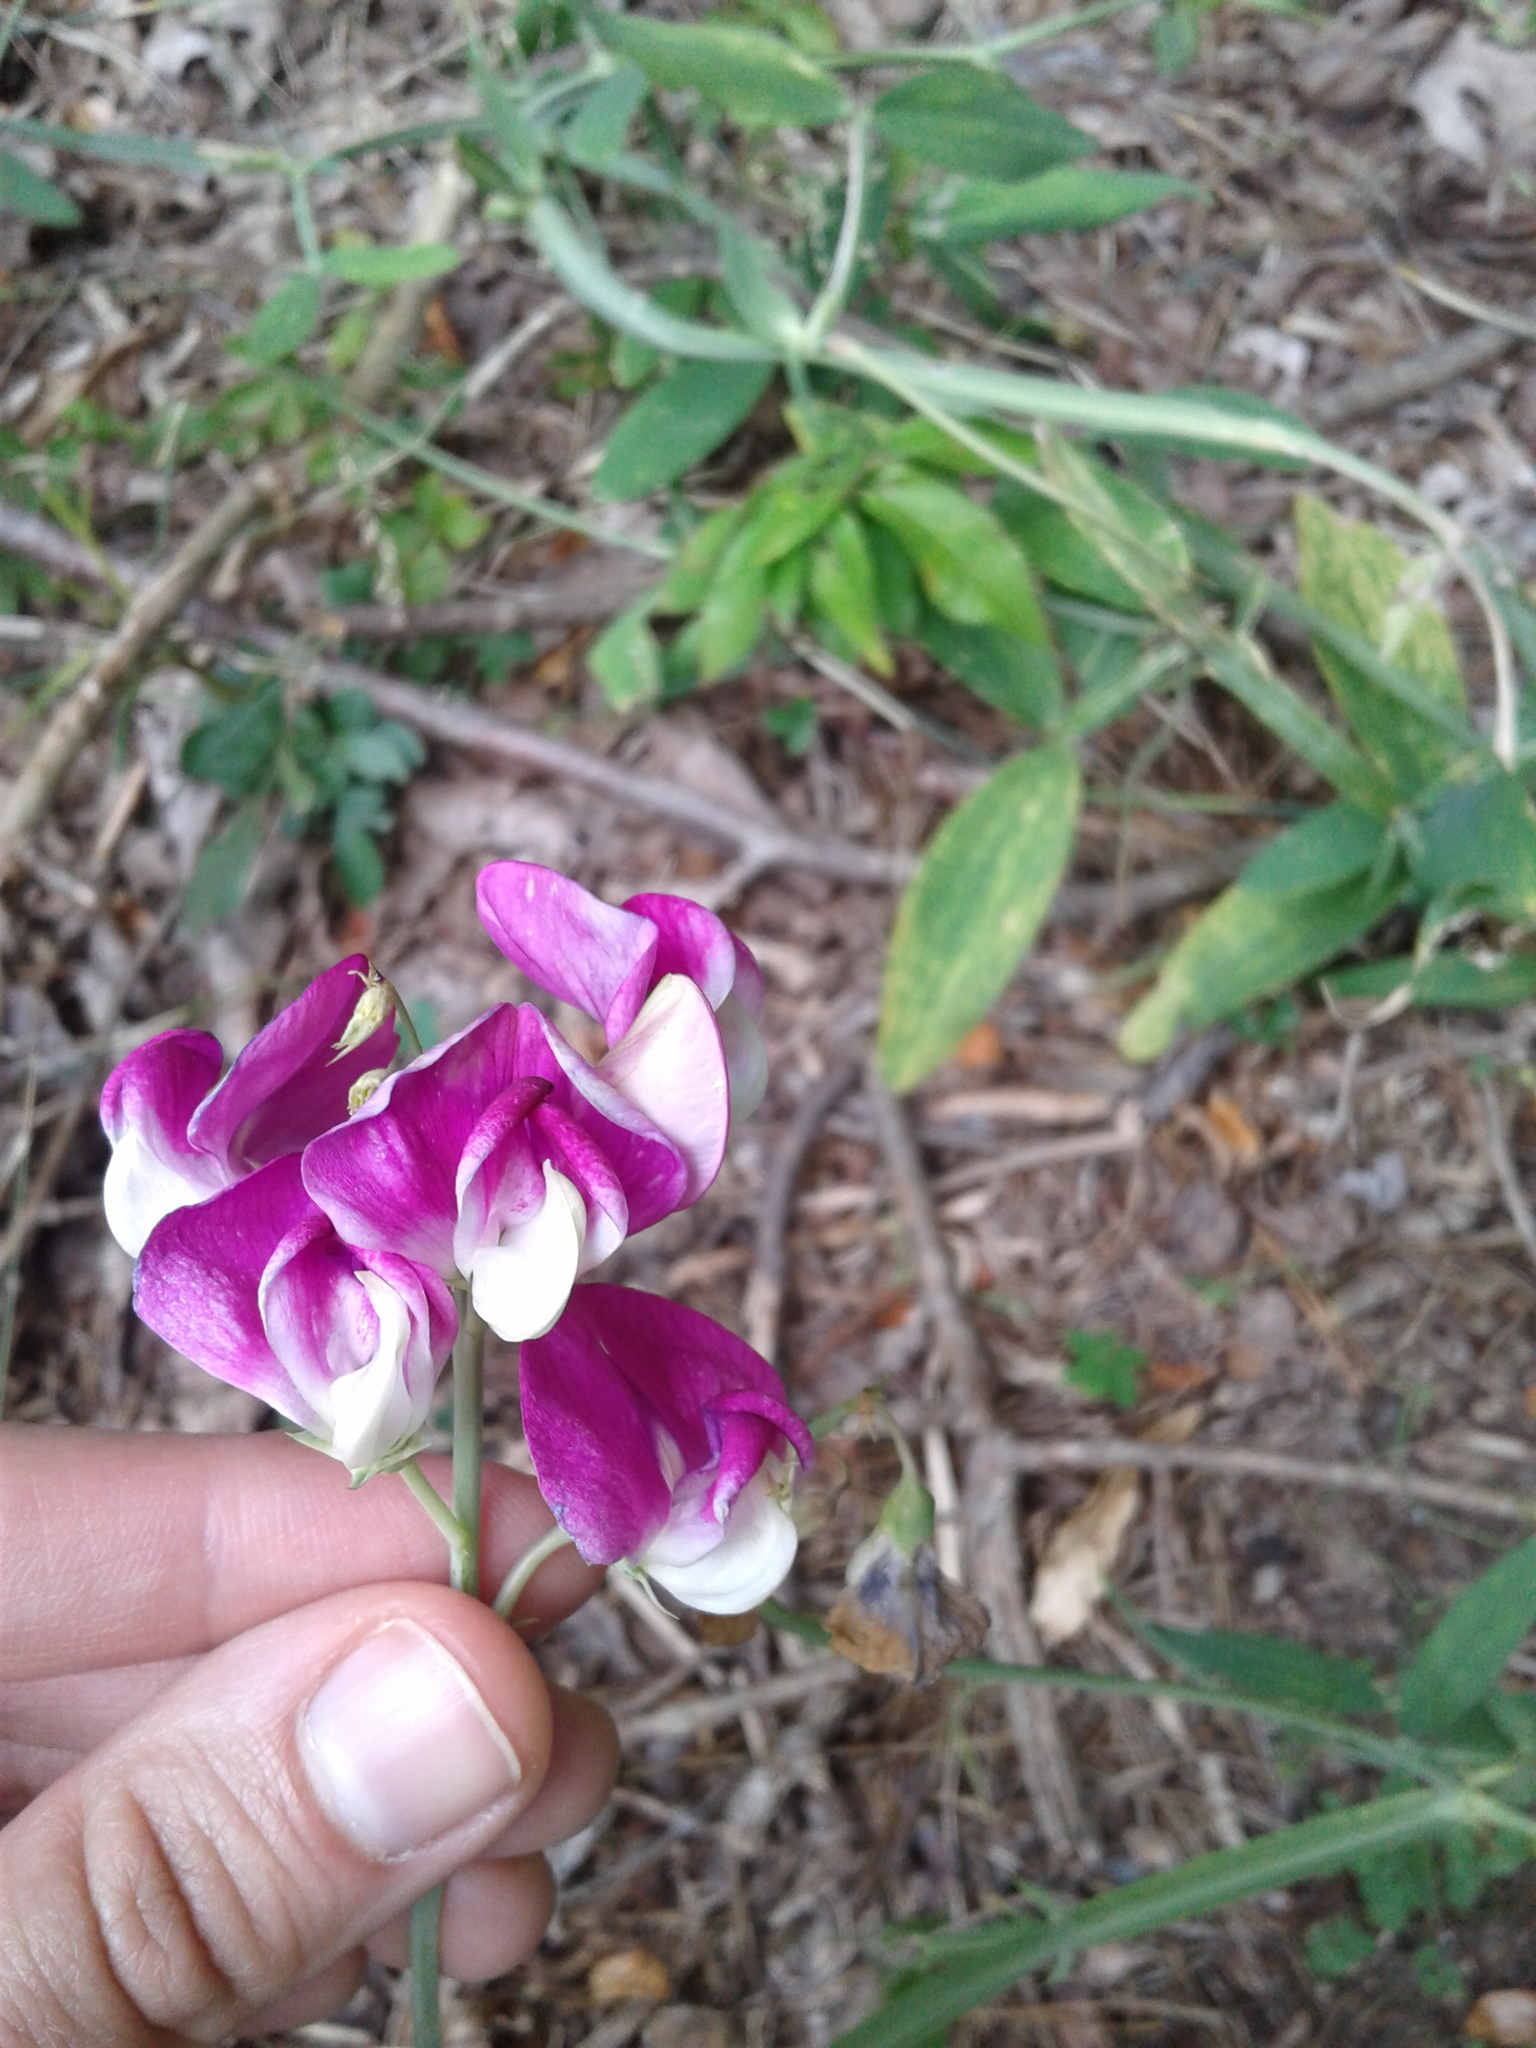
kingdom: Plantae
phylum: Tracheophyta
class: Magnoliopsida
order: Fabales
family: Fabaceae
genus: Lathyrus
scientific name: Lathyrus latifolius
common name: Perennial pea
